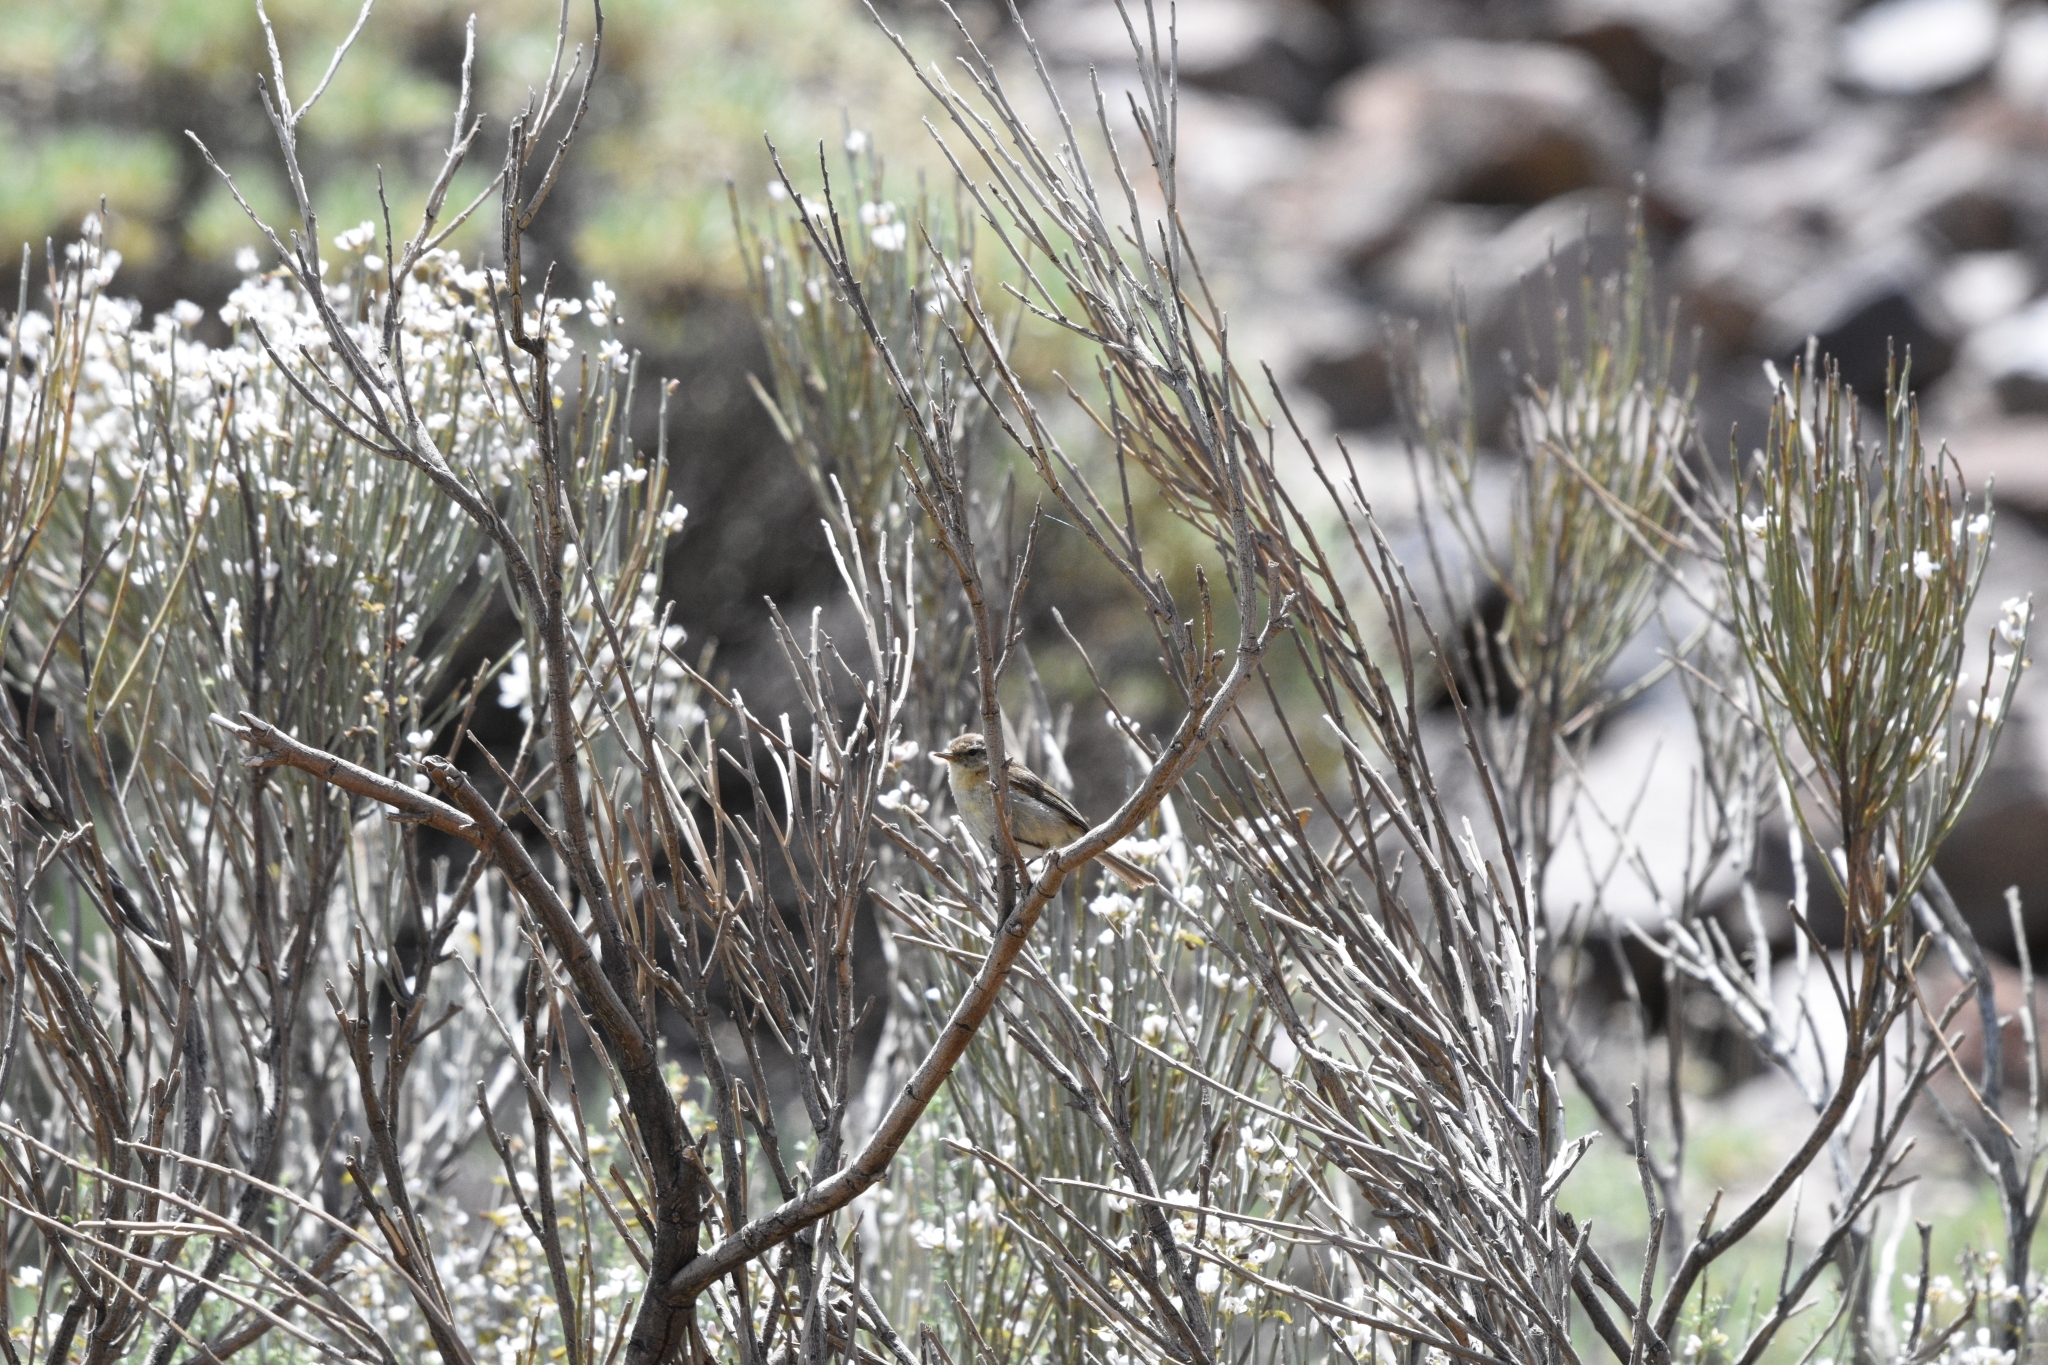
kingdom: Animalia
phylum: Chordata
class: Aves
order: Passeriformes
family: Phylloscopidae
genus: Phylloscopus
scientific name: Phylloscopus canariensis
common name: Canary islands chiffchaff
